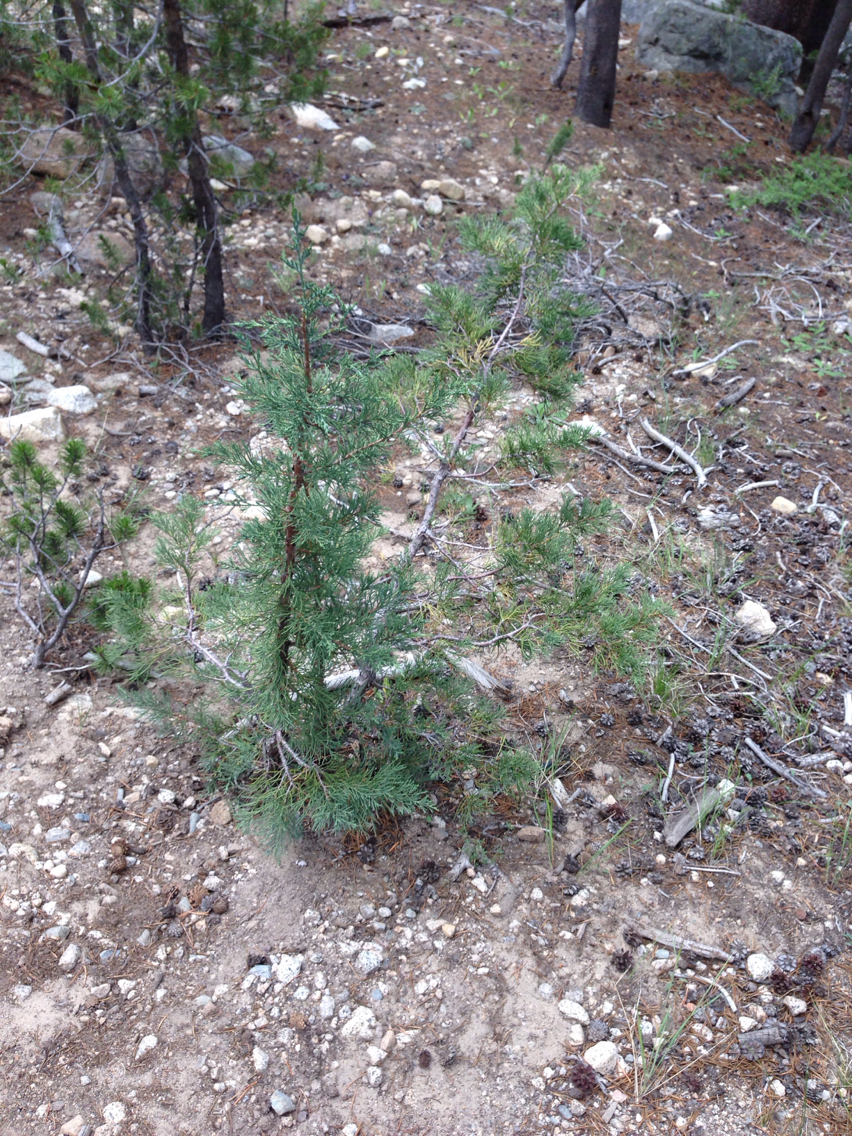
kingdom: Plantae
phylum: Tracheophyta
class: Pinopsida
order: Pinales
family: Cupressaceae
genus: Juniperus
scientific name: Juniperus occidentalis
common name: Western juniper
